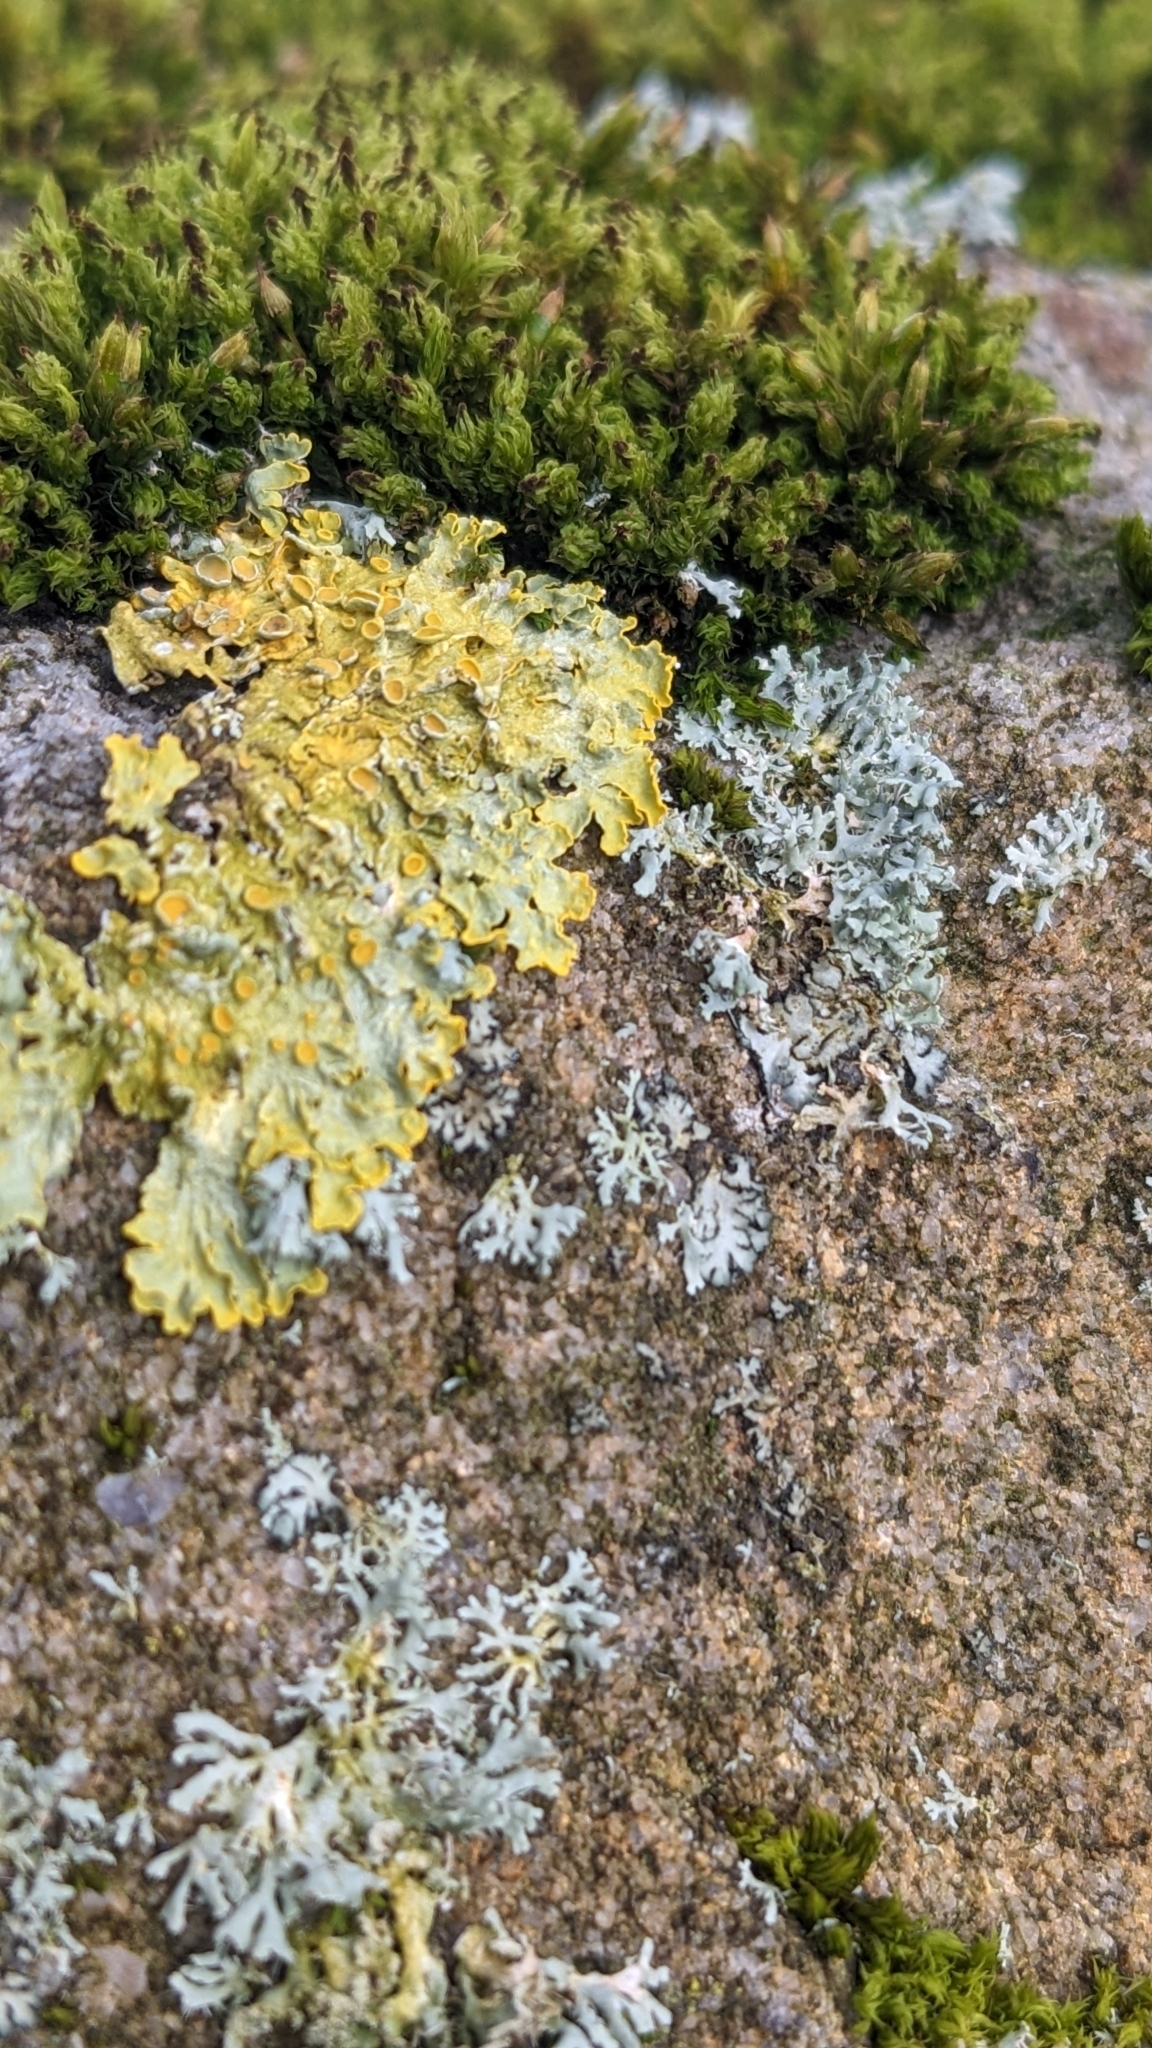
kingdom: Fungi
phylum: Ascomycota
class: Lecanoromycetes
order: Teloschistales
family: Teloschistaceae
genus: Xanthoria
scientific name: Xanthoria parietina
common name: Common orange lichen
